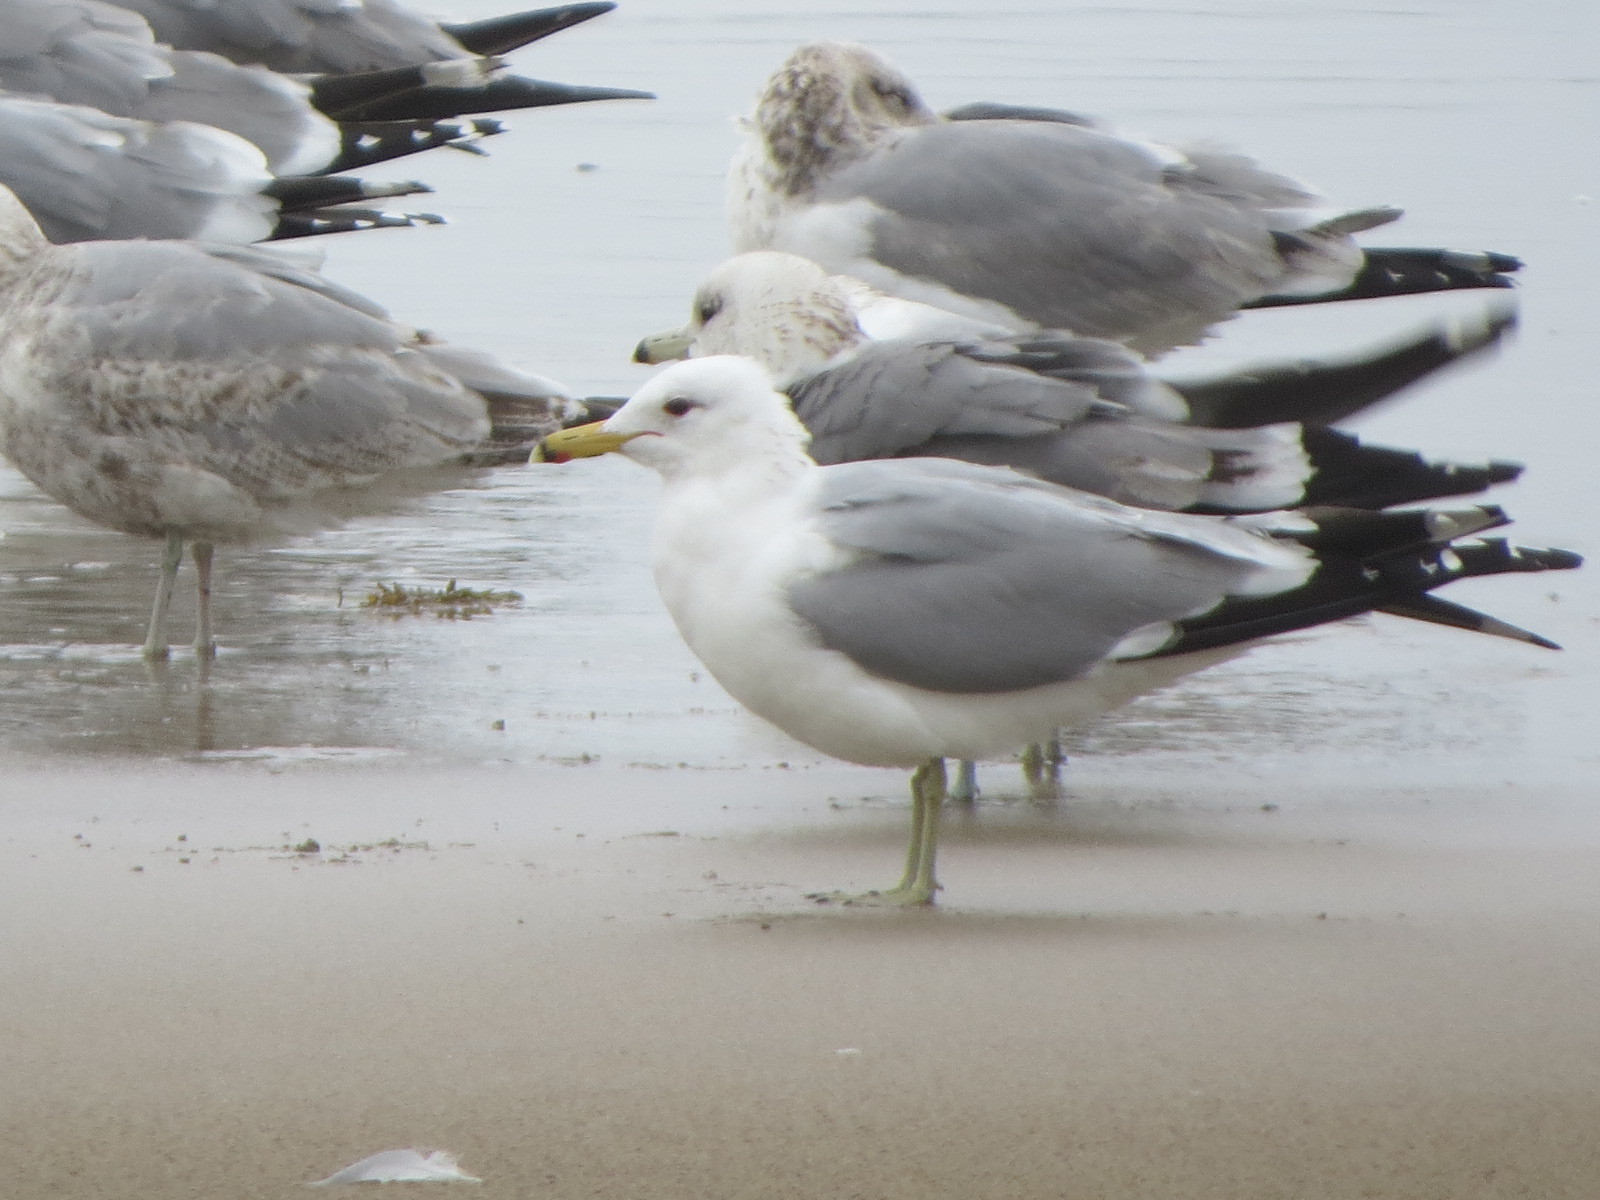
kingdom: Animalia
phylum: Chordata
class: Aves
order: Charadriiformes
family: Laridae
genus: Larus
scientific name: Larus californicus
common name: California gull
